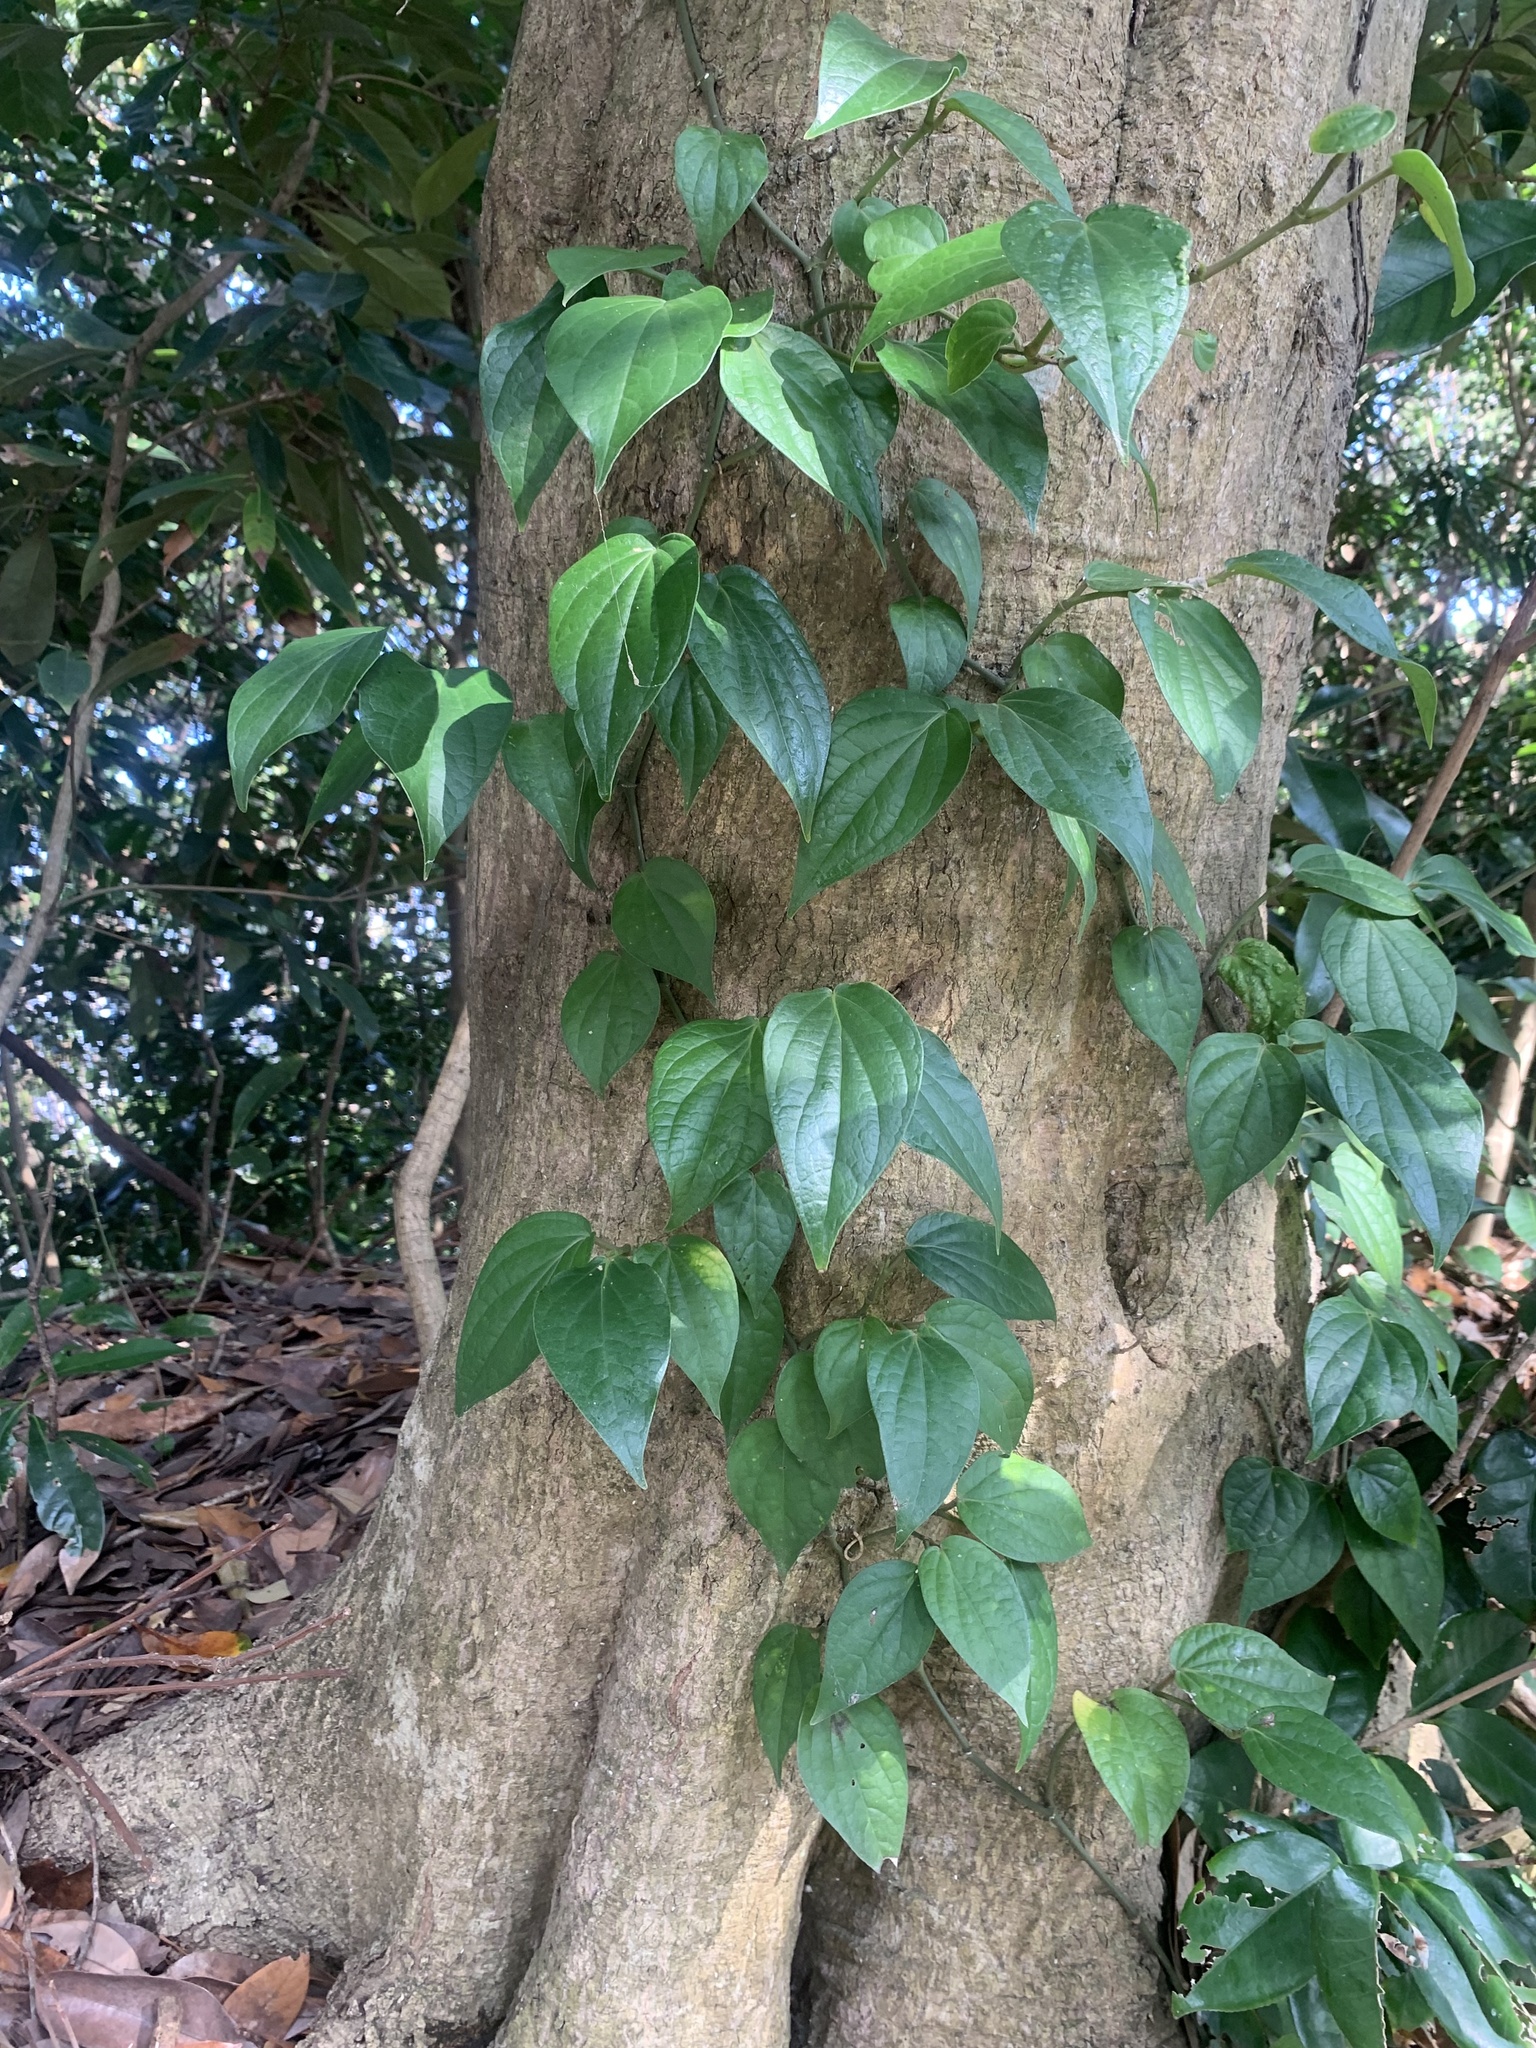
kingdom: Plantae
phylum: Tracheophyta
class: Magnoliopsida
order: Piperales
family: Piperaceae
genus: Piper
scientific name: Piper kadsura
